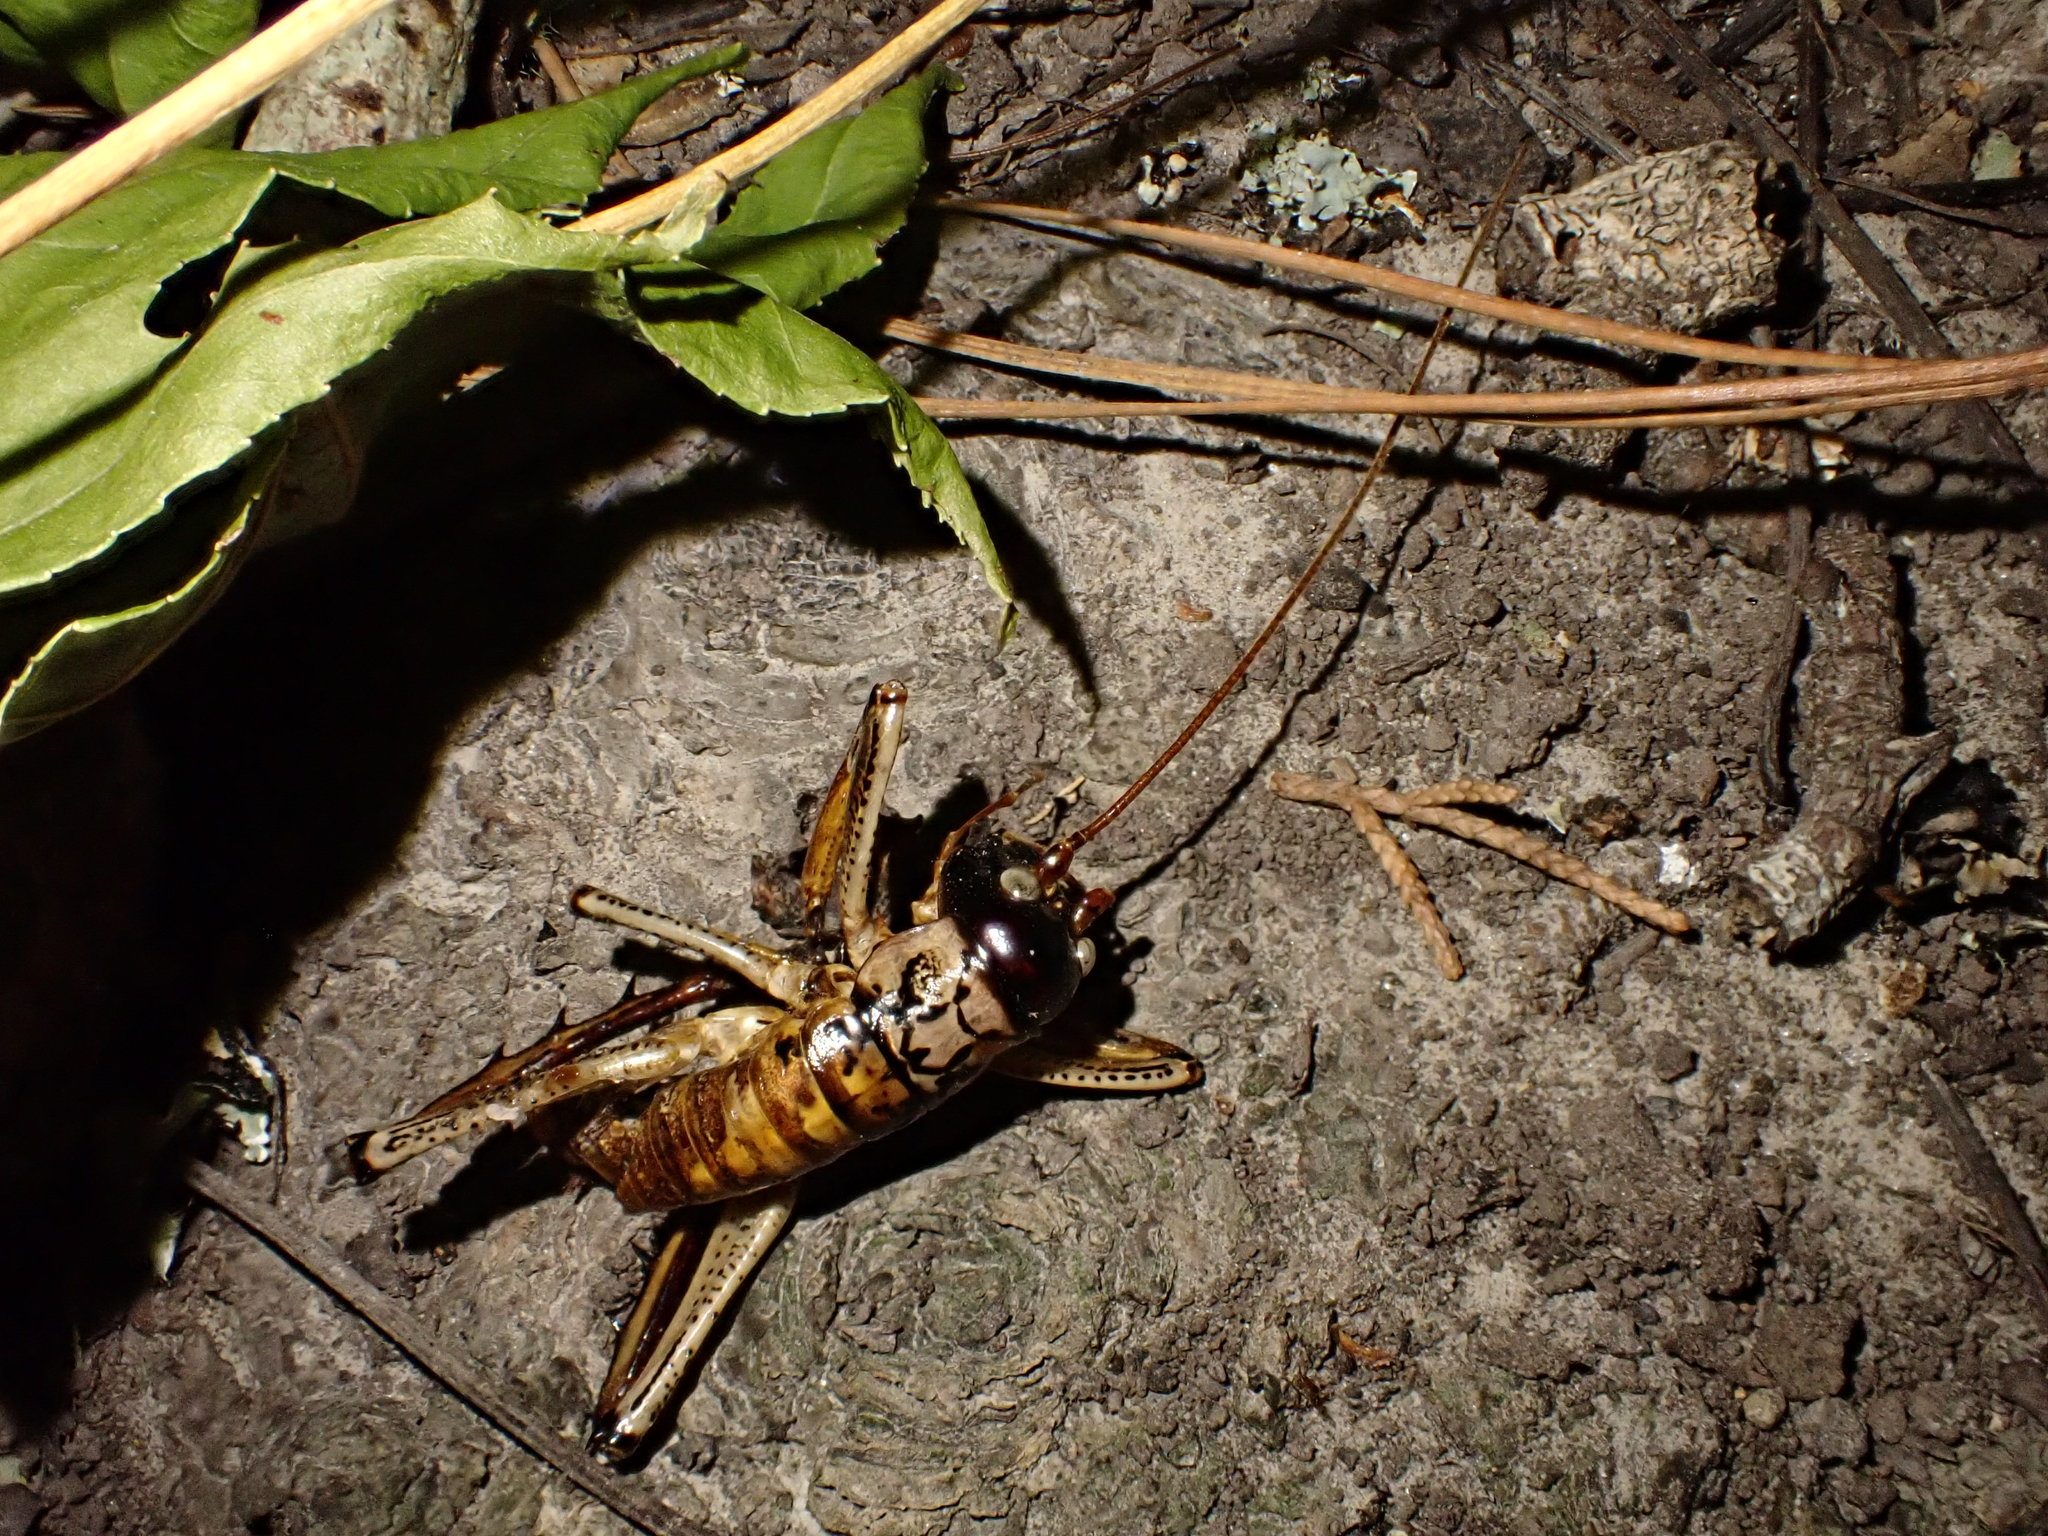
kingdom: Animalia
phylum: Arthropoda
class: Insecta
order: Orthoptera
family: Anostostomatidae
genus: Hemideina
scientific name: Hemideina thoracica
